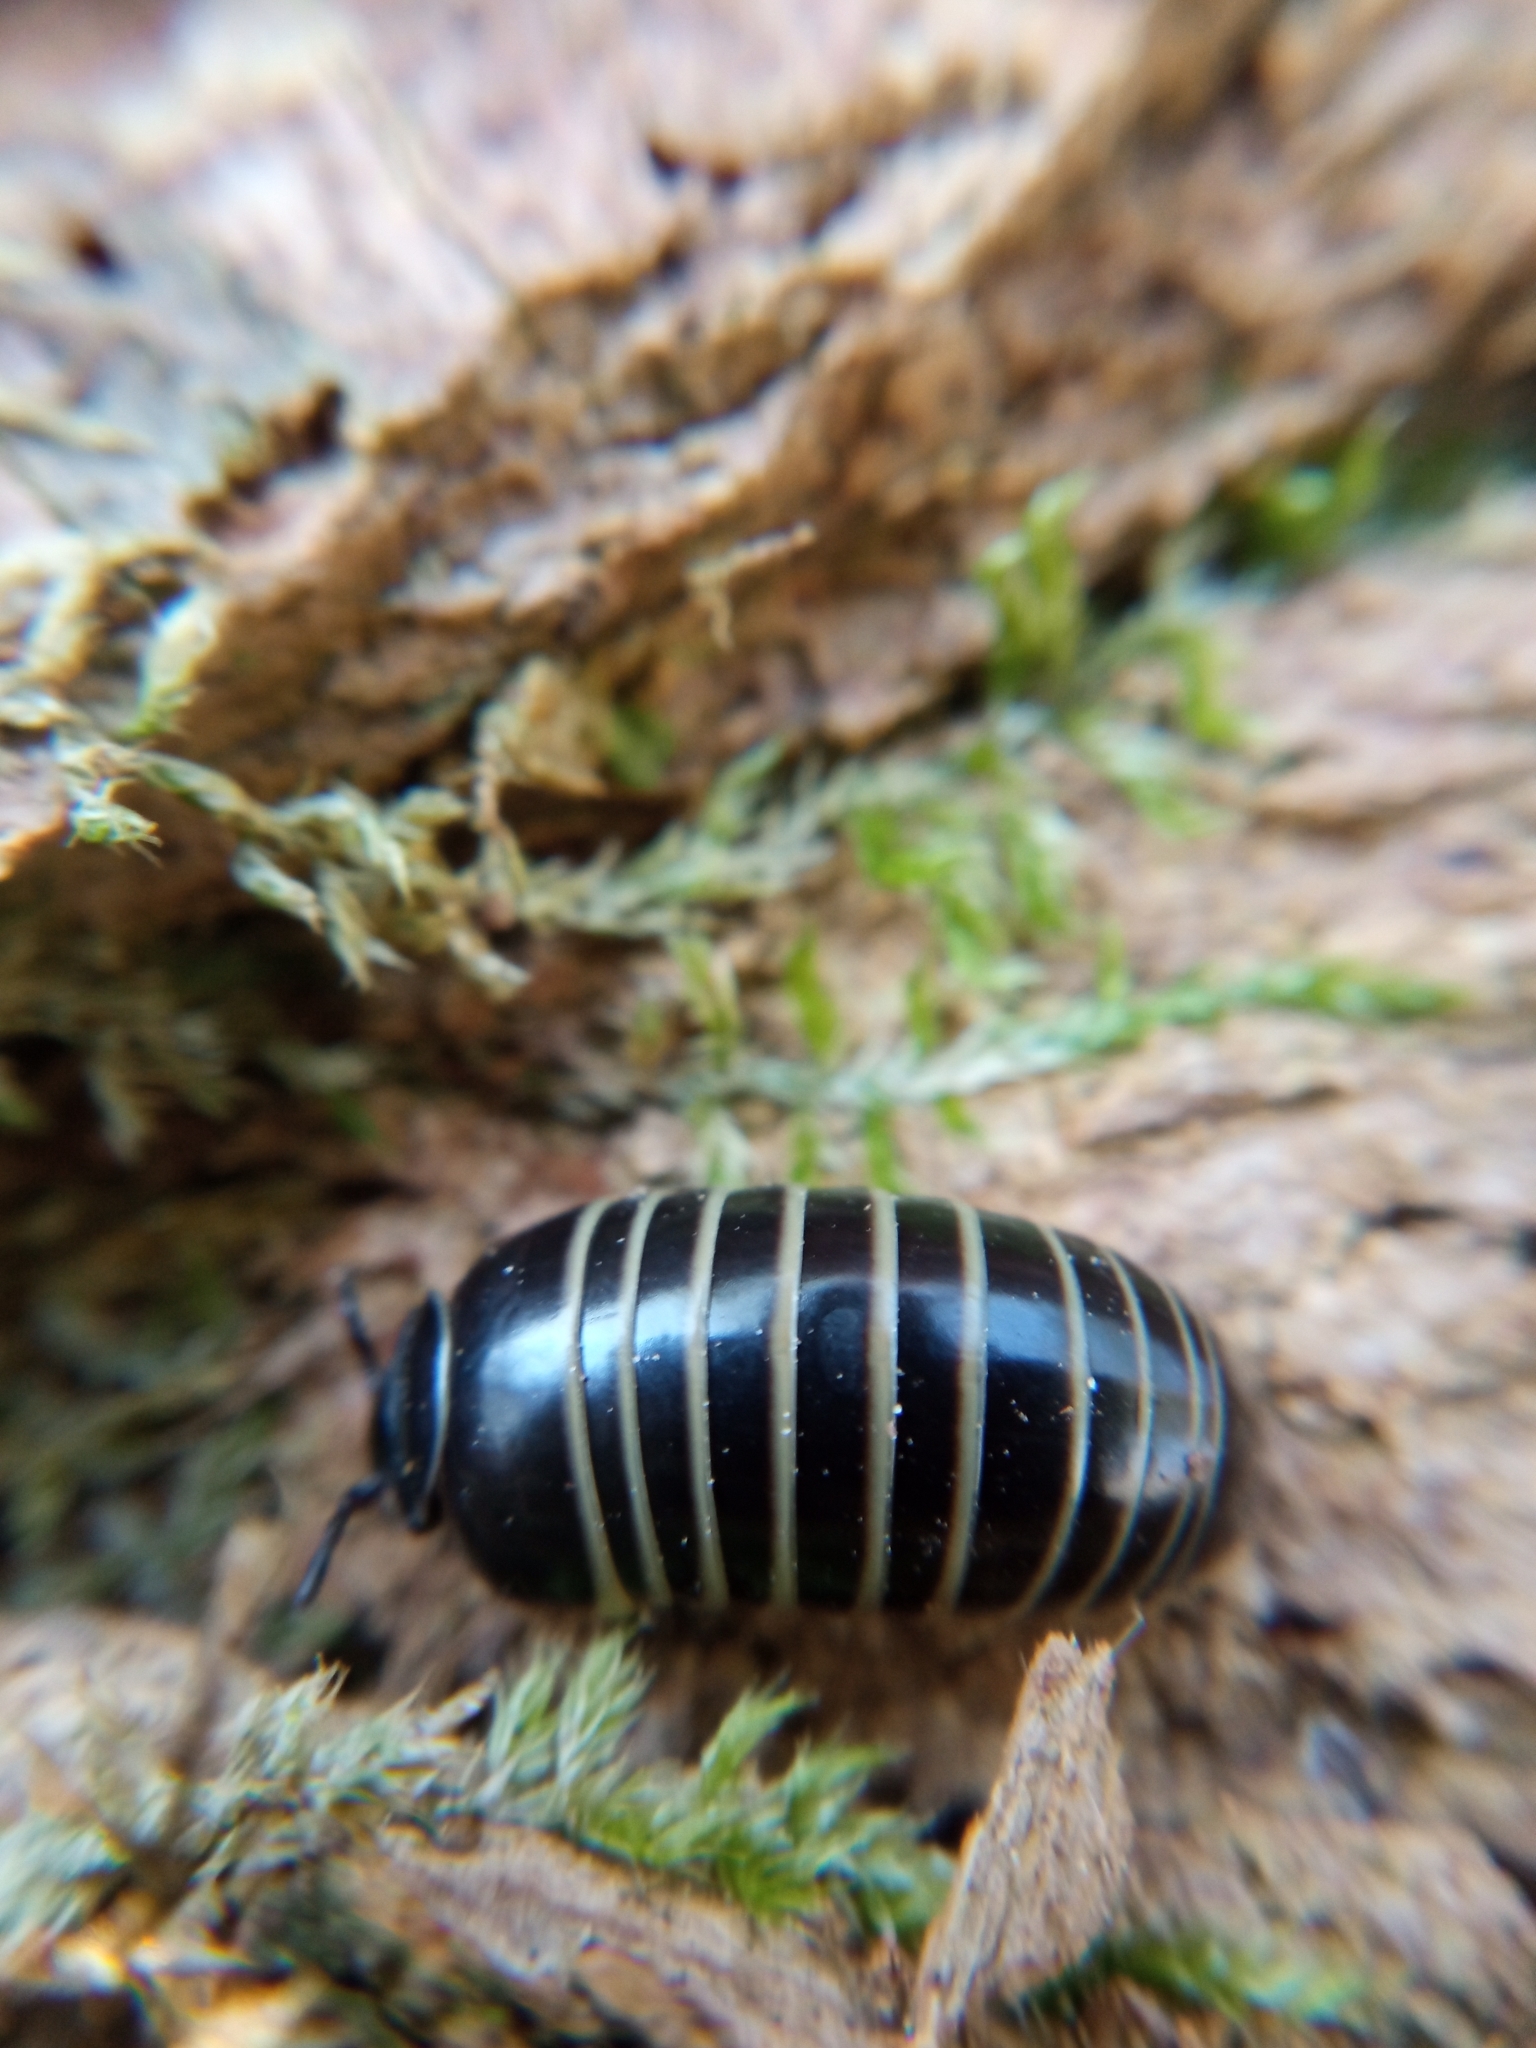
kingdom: Animalia
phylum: Arthropoda
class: Diplopoda
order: Glomerida
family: Glomeridae
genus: Glomeris
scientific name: Glomeris marginata
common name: Bordered pill millipede
